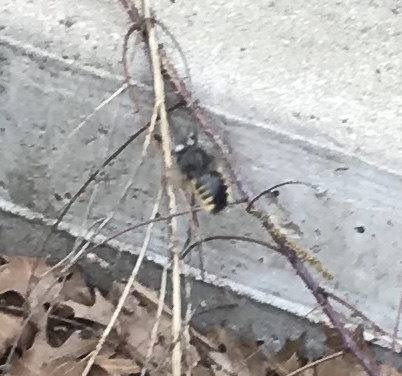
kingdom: Animalia
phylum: Arthropoda
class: Insecta
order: Hymenoptera
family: Apidae
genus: Xylocopa
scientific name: Xylocopa tabaniformis
